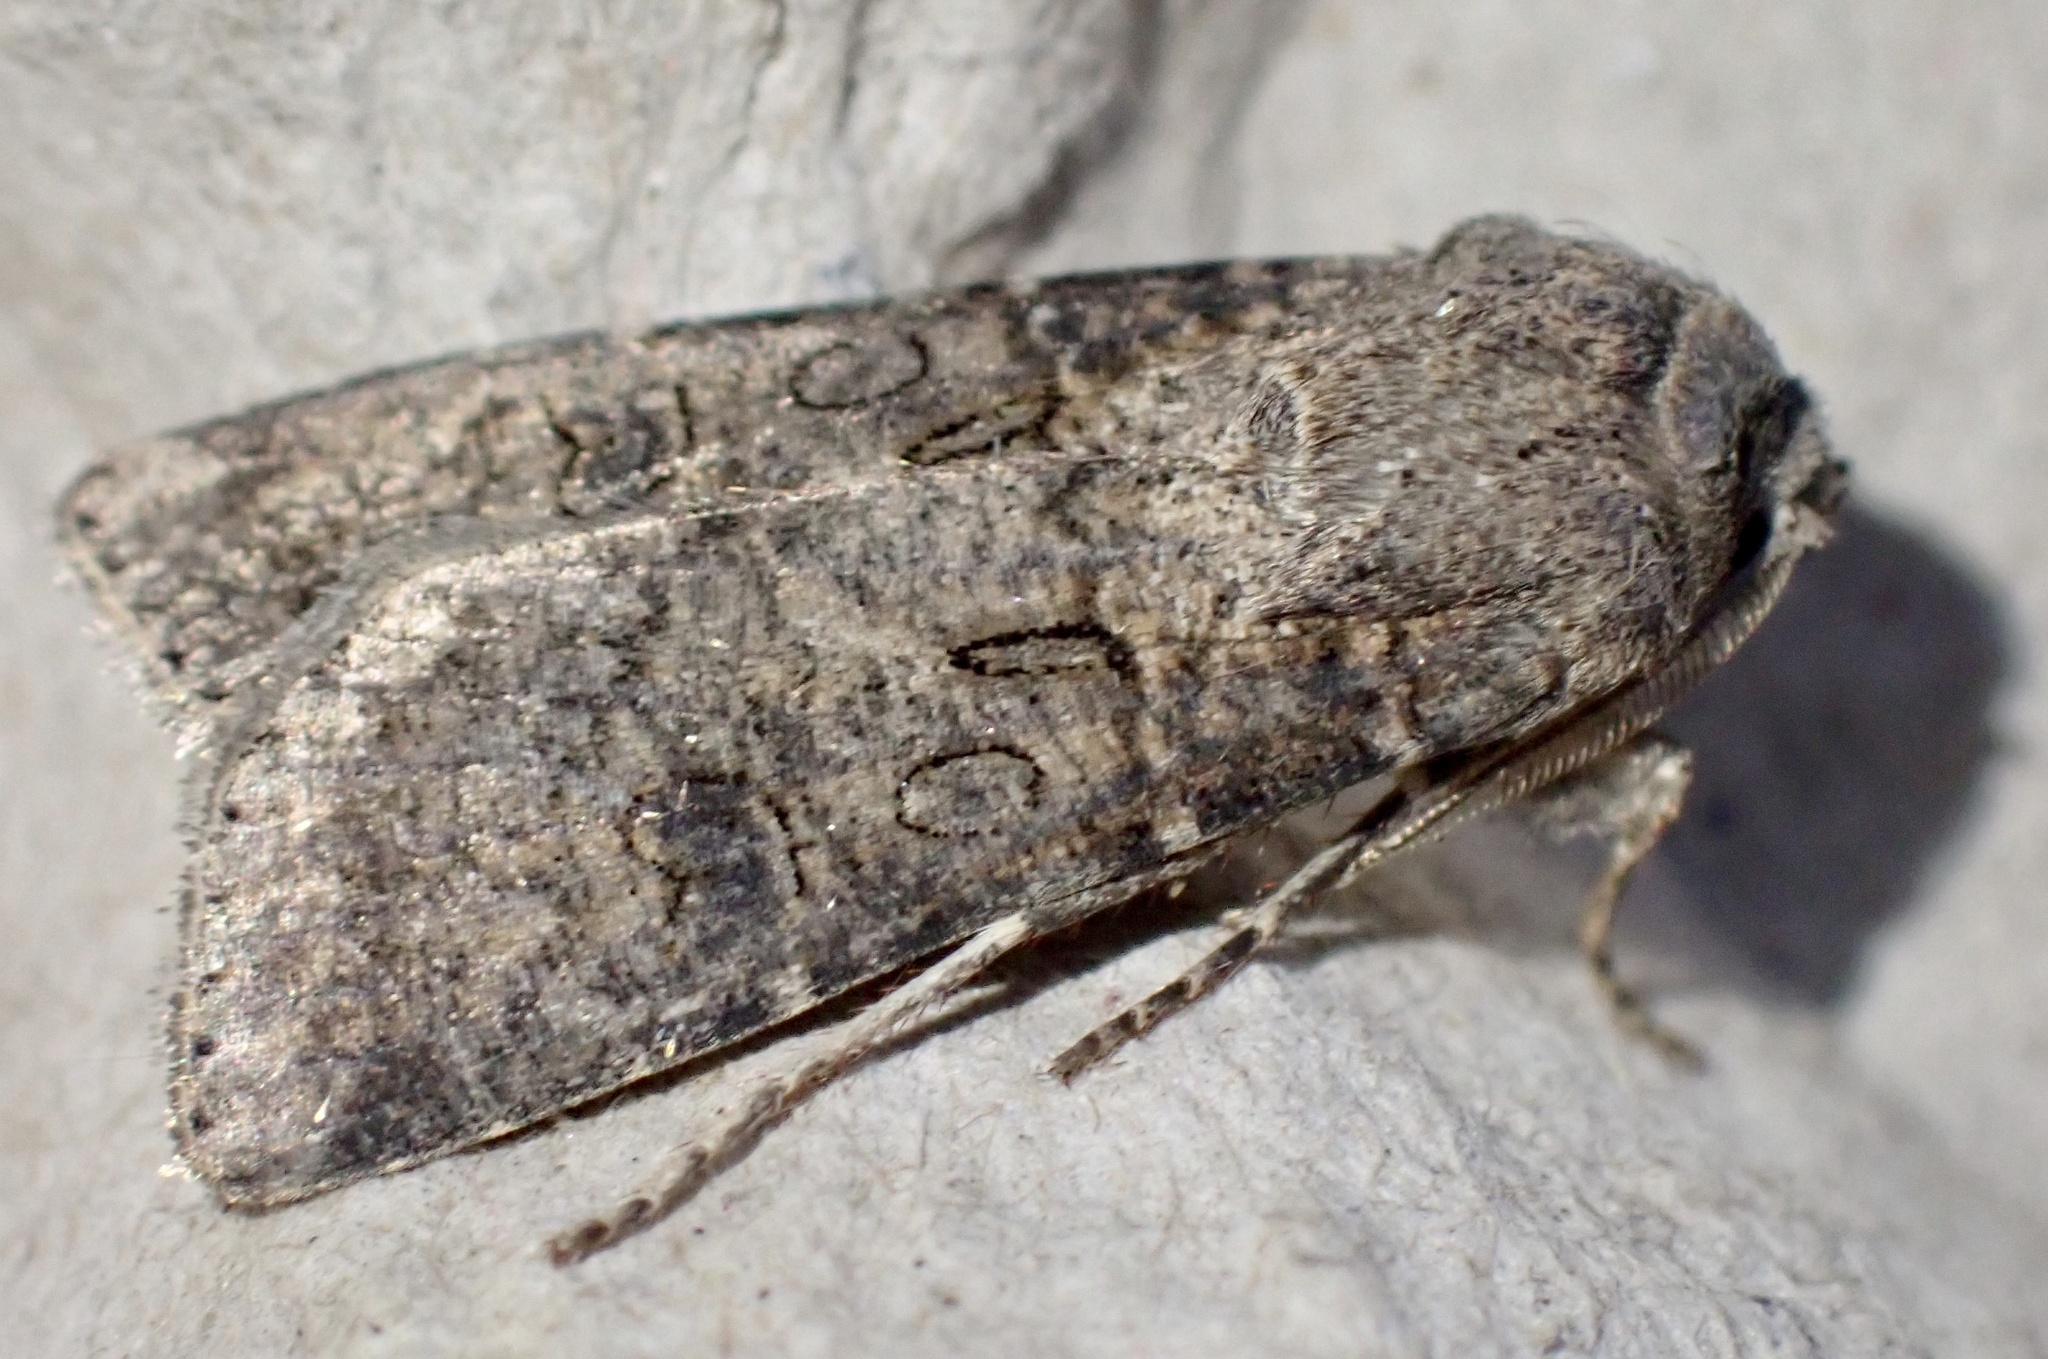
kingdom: Animalia
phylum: Arthropoda
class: Insecta
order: Lepidoptera
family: Noctuidae
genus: Agrotis
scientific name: Agrotis segetum
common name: Turnip moth
